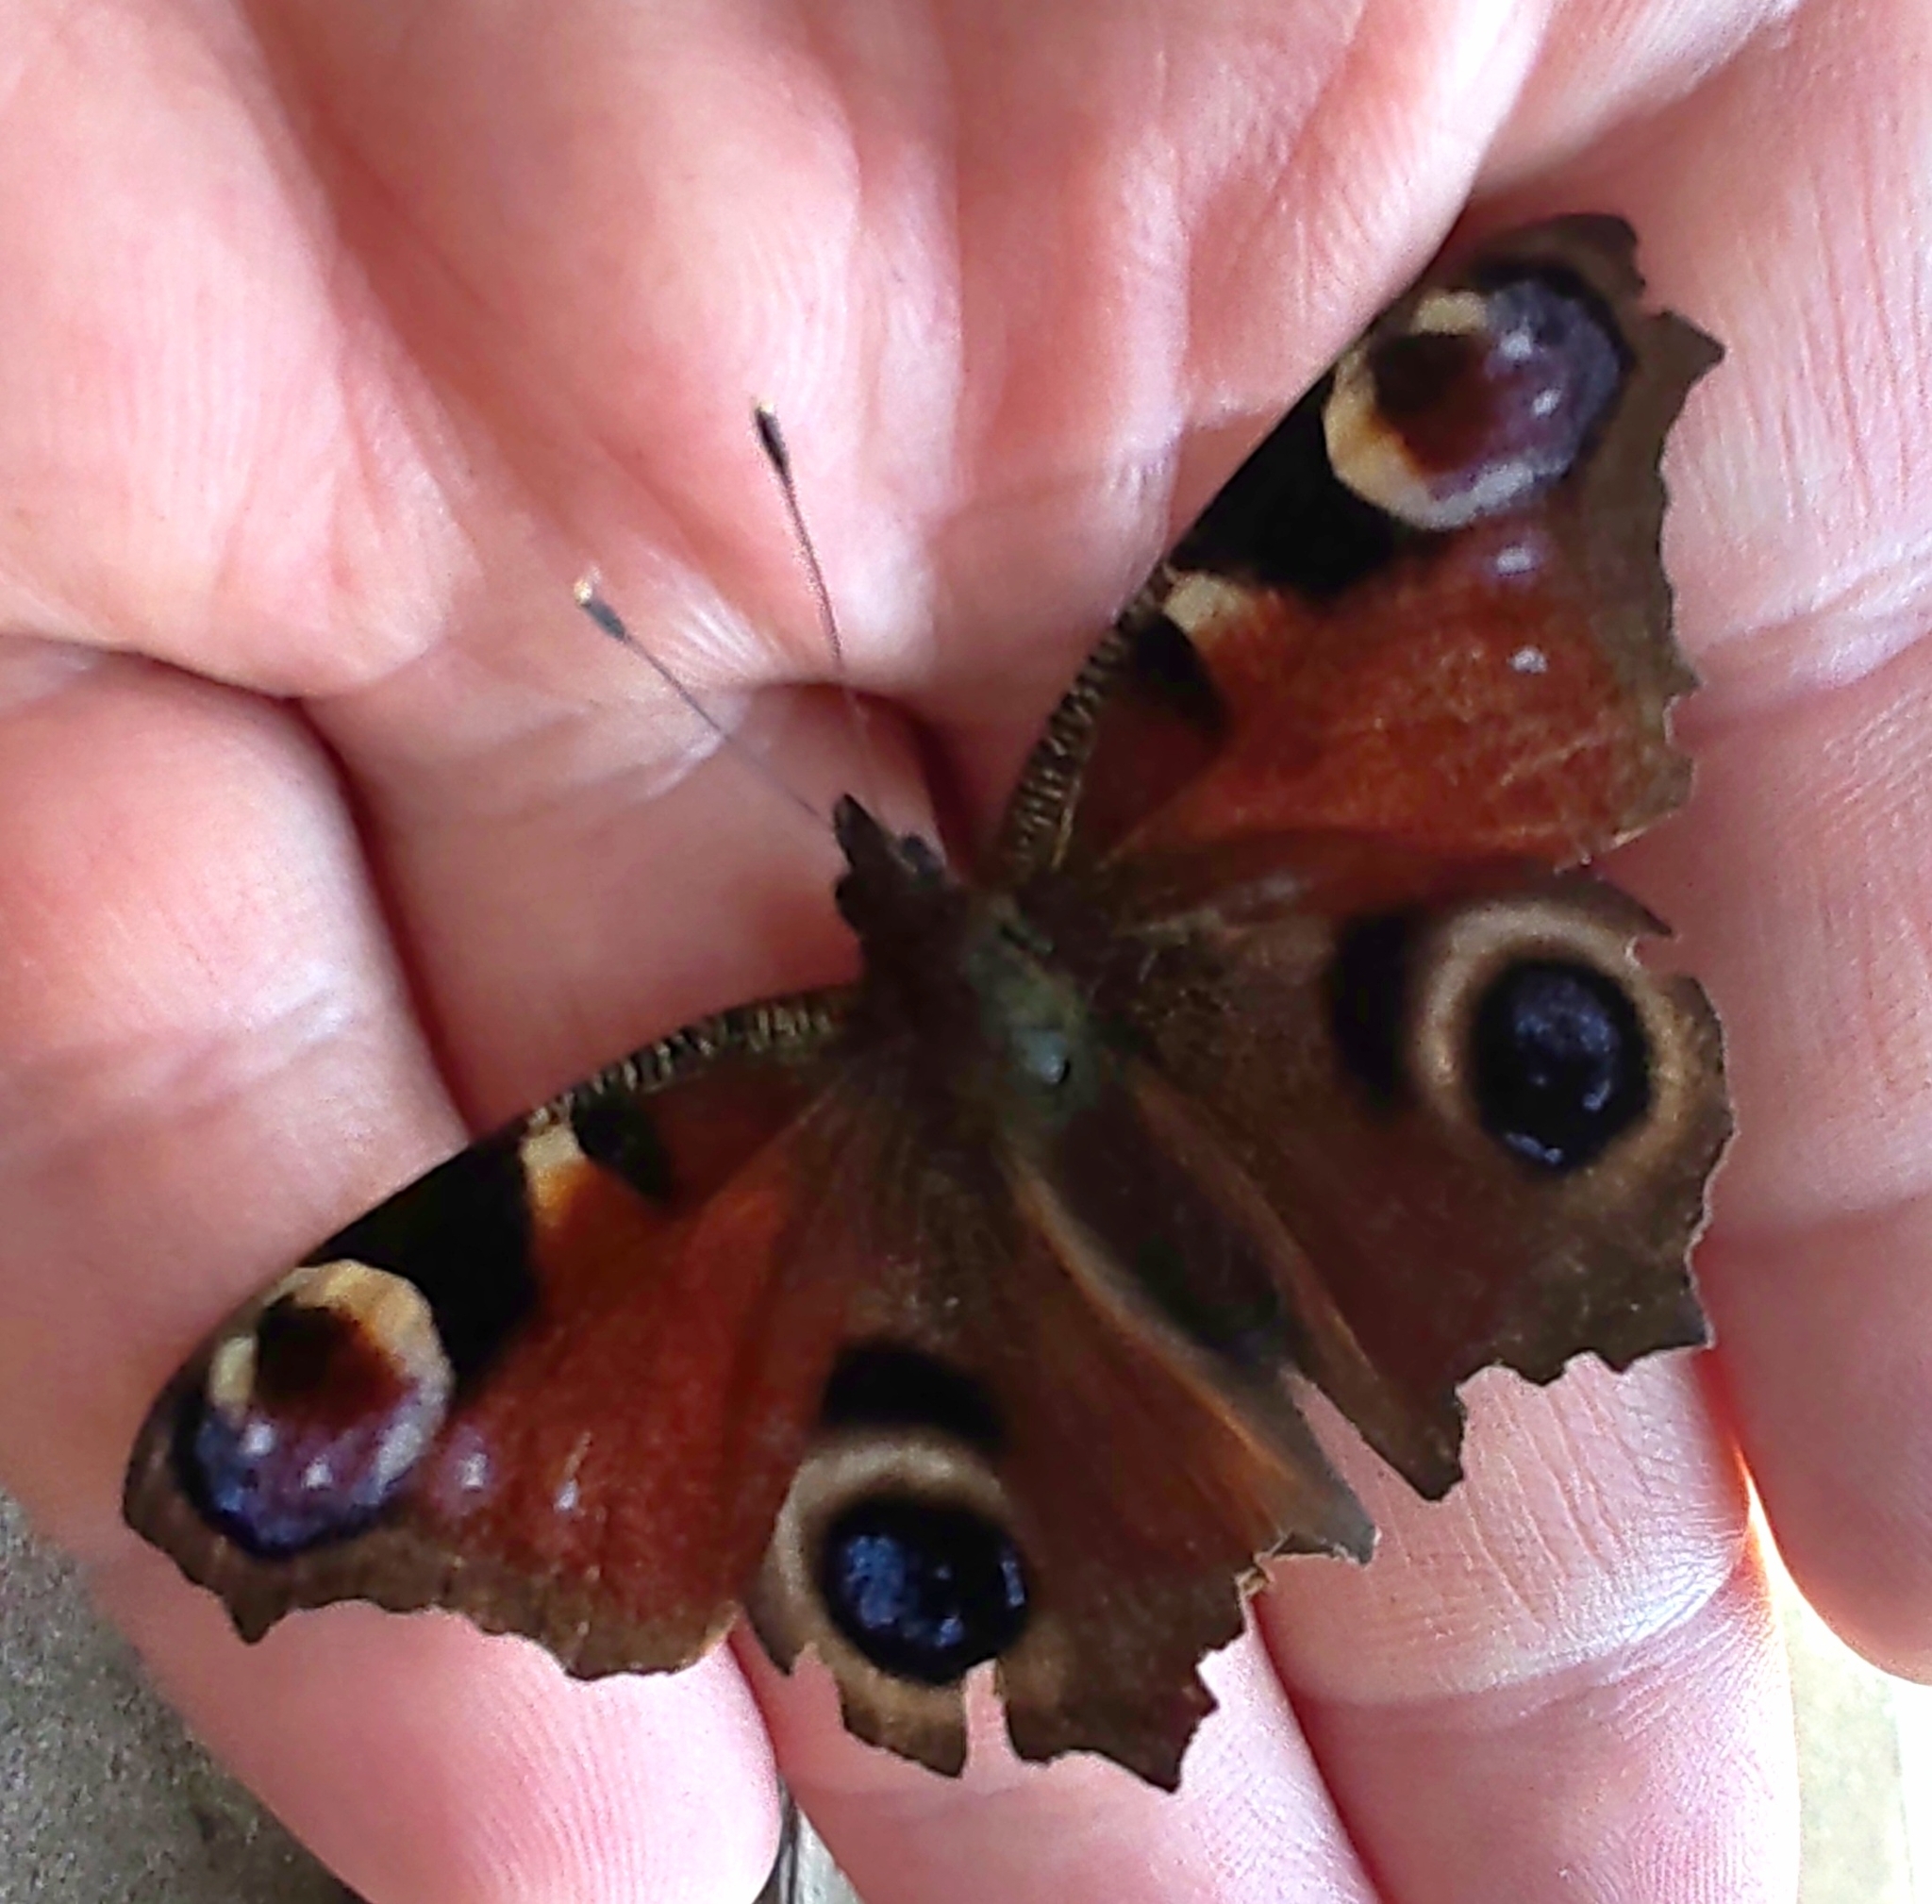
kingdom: Animalia
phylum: Arthropoda
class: Insecta
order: Lepidoptera
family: Nymphalidae
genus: Aglais
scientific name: Aglais io
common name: Peacock
